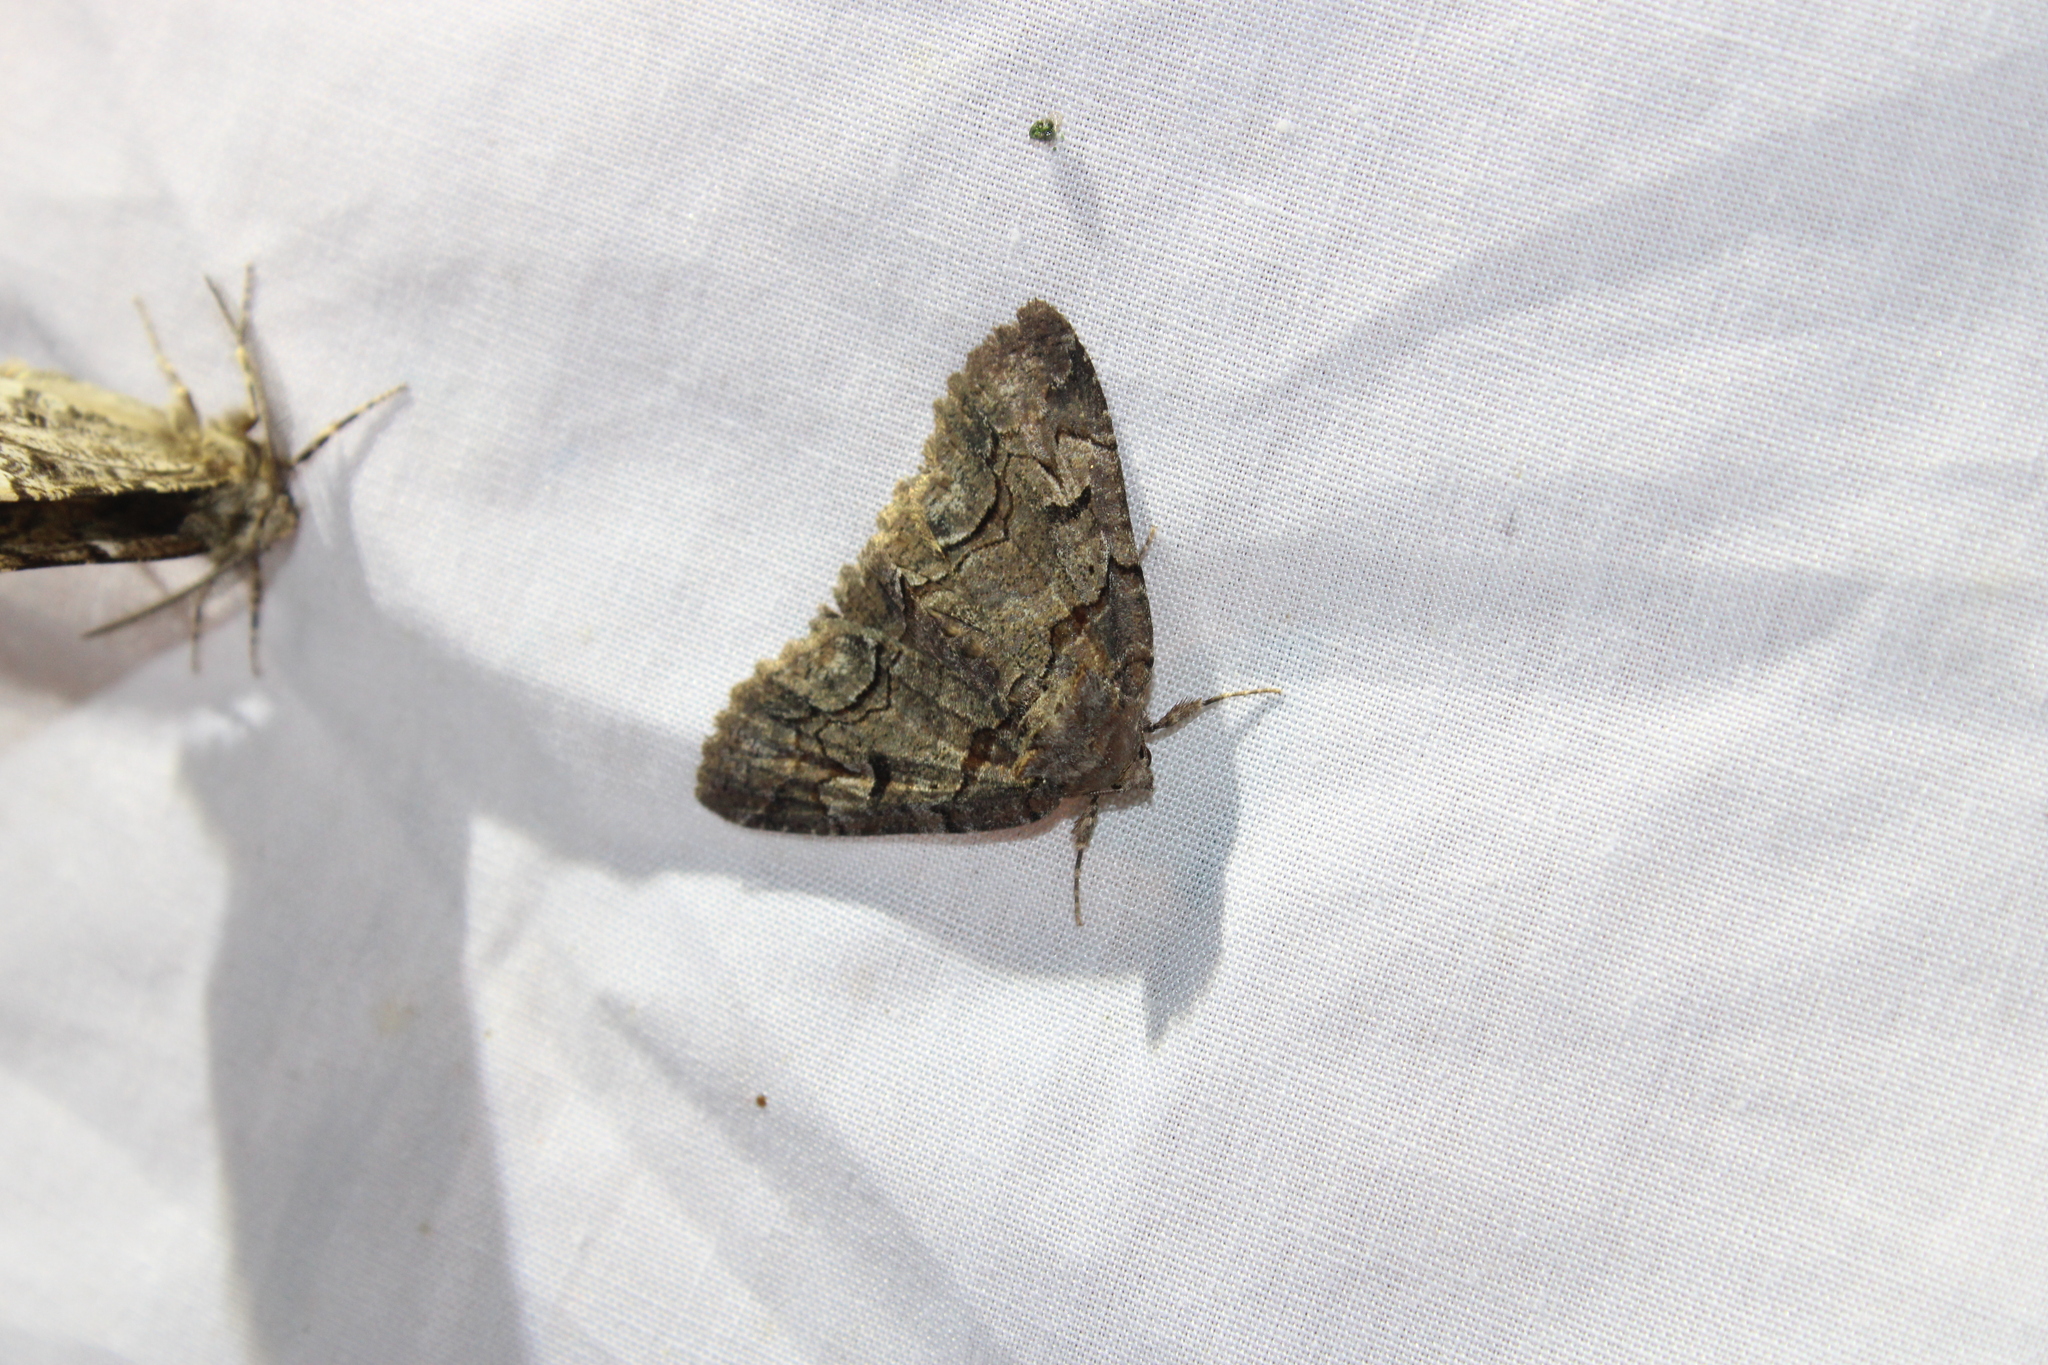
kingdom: Animalia
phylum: Arthropoda
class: Insecta
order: Lepidoptera
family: Erebidae
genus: Zale
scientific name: Zale helata
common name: Brown-spotted zale moth
